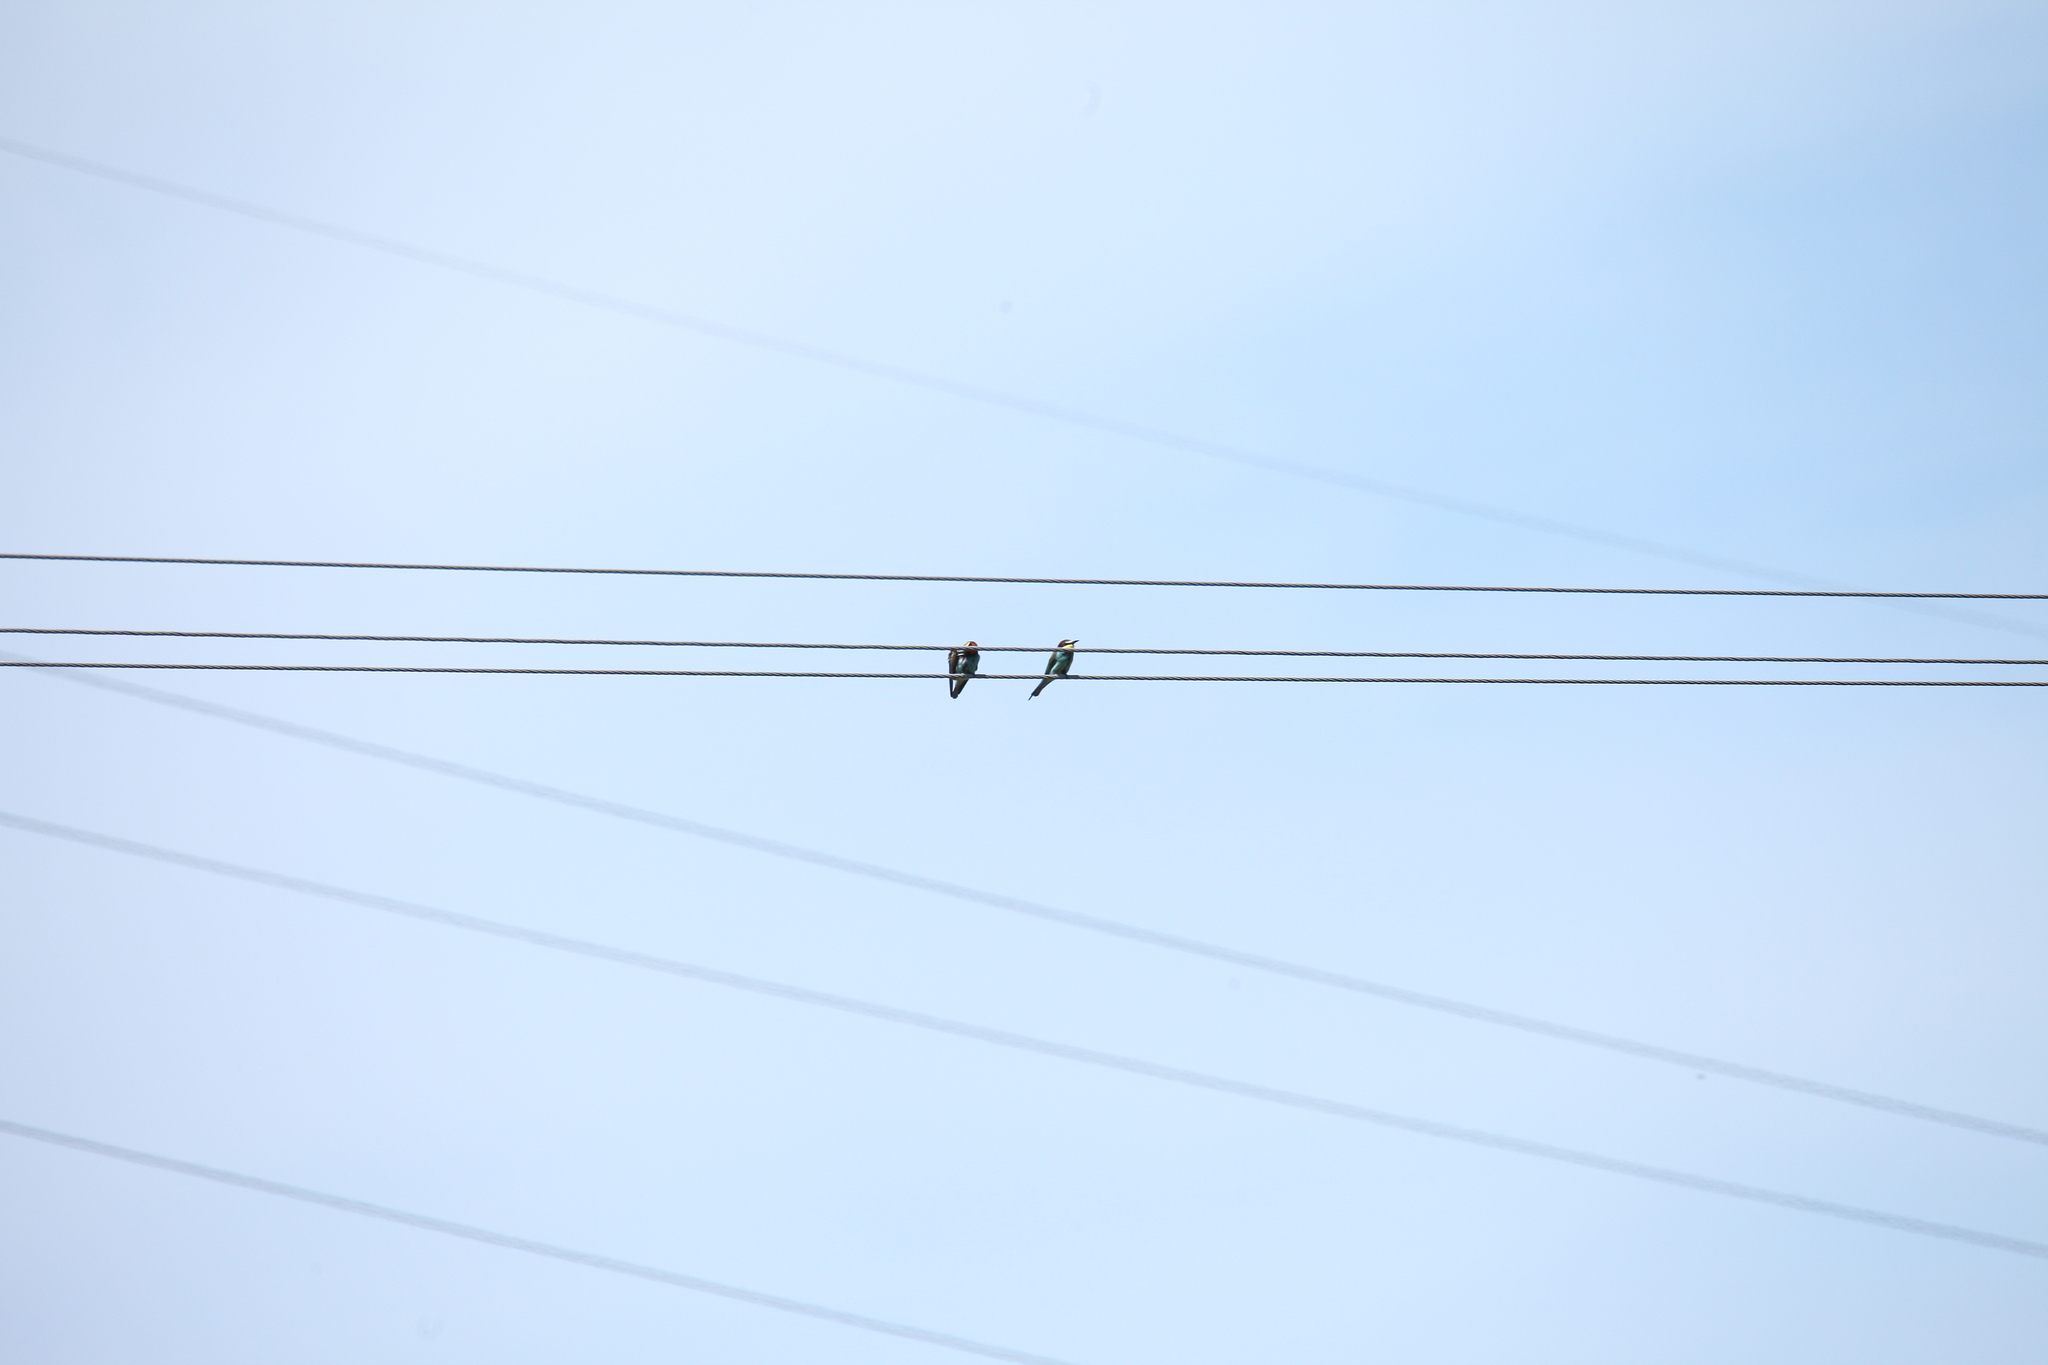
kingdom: Animalia
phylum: Chordata
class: Aves
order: Coraciiformes
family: Meropidae
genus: Merops
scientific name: Merops apiaster
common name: European bee-eater
